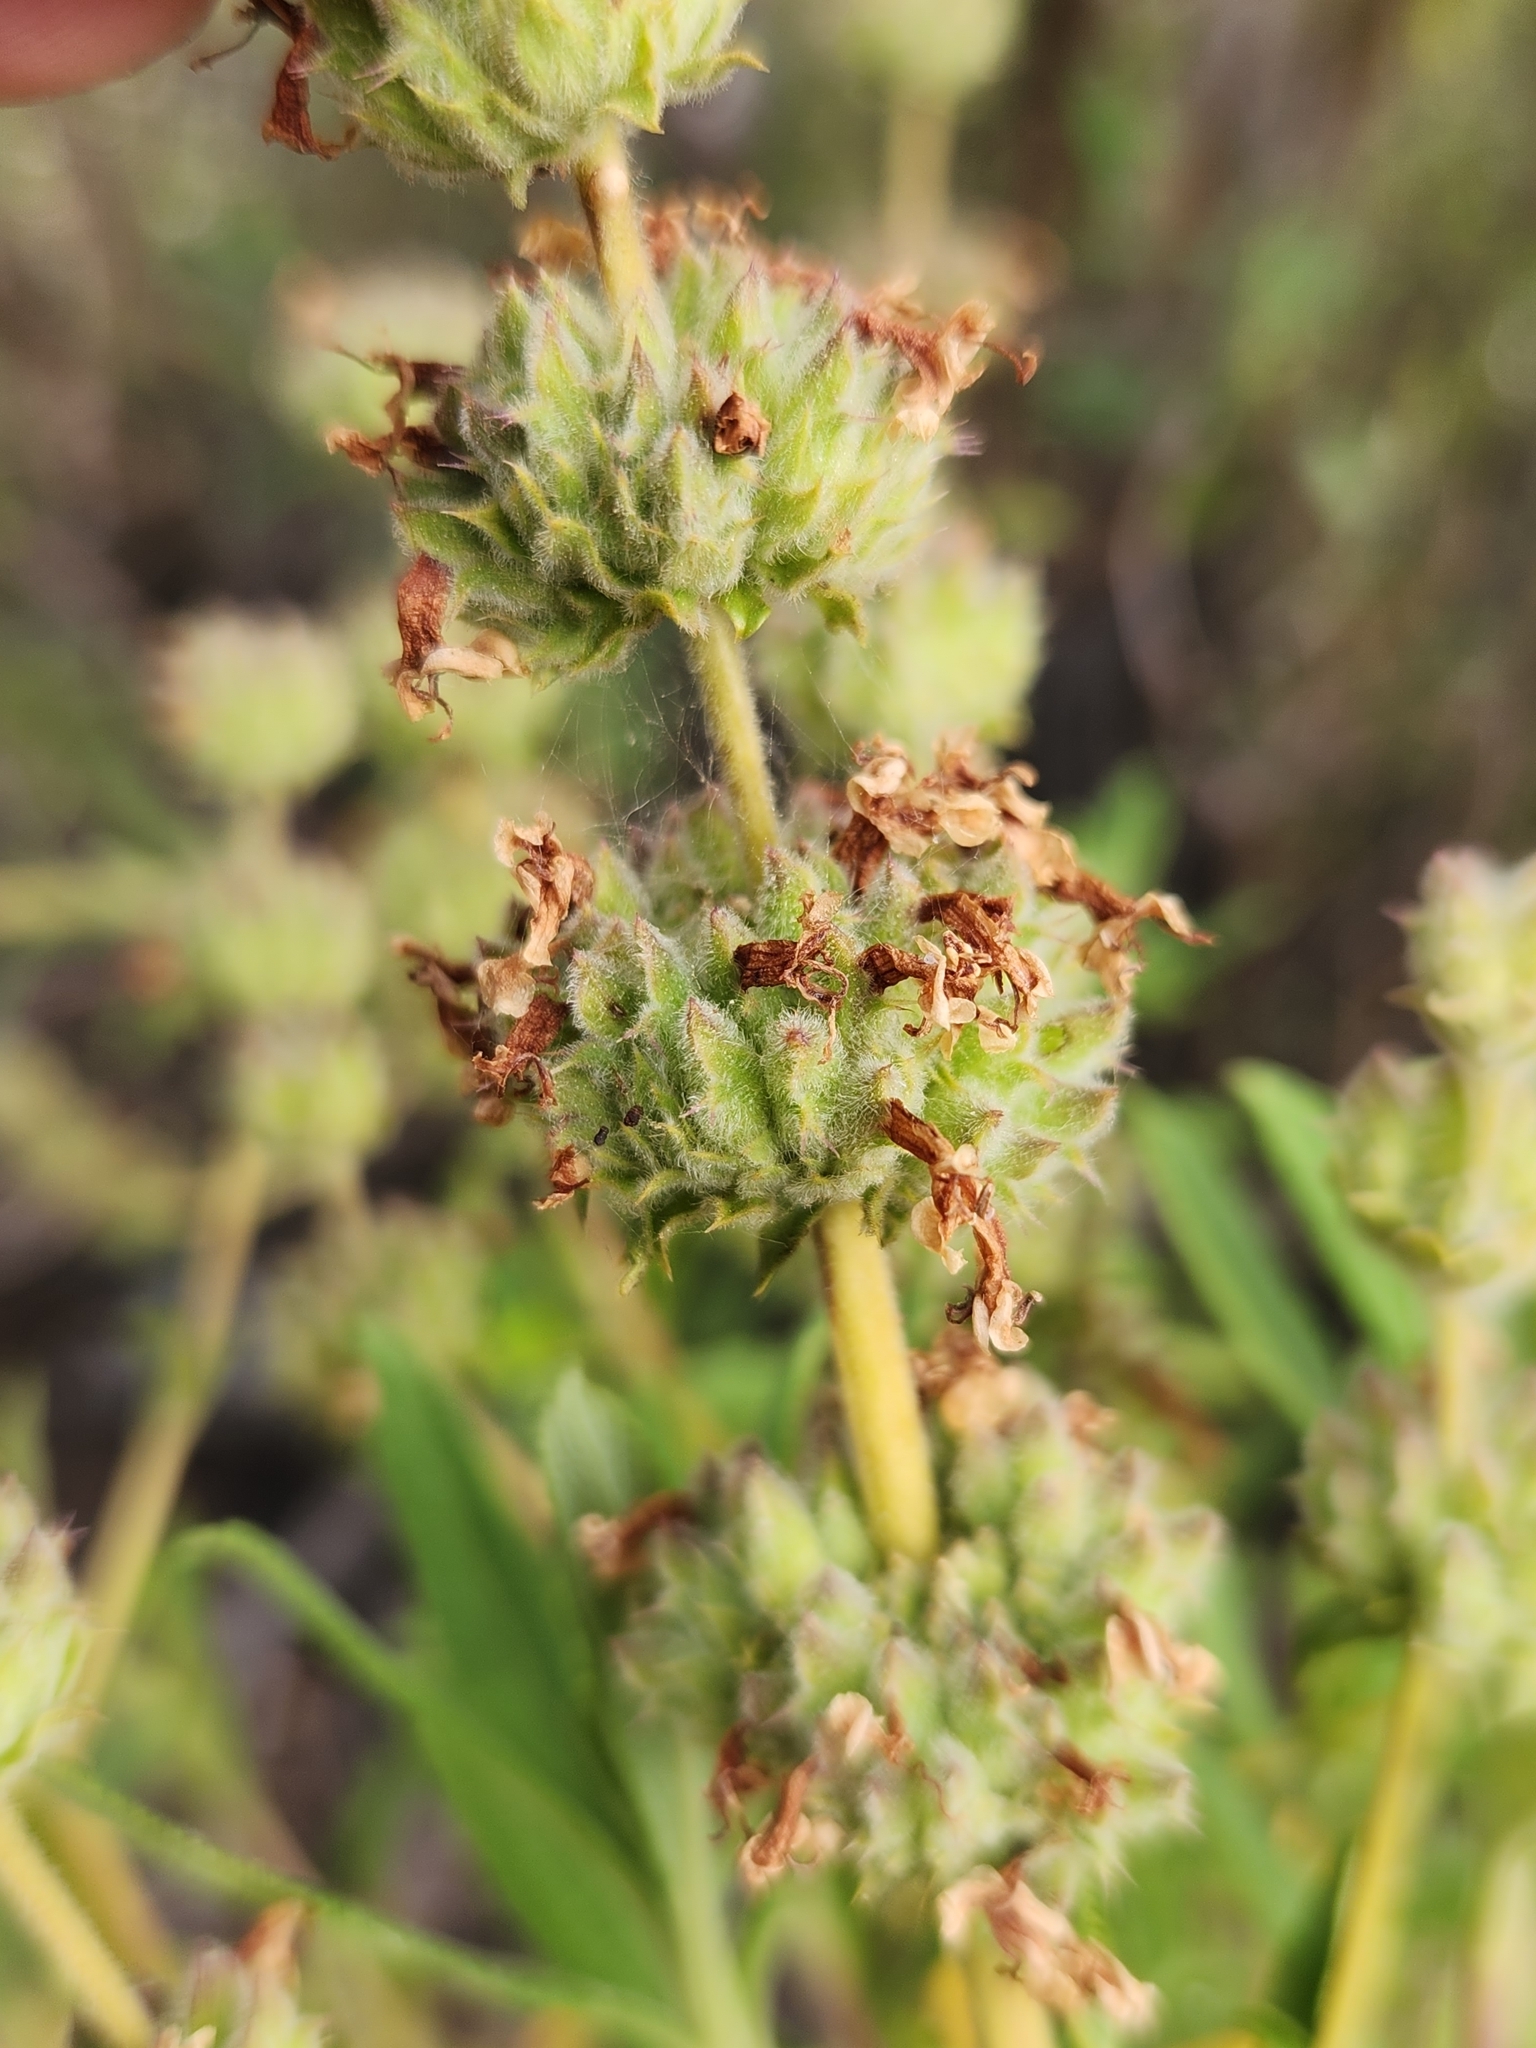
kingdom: Plantae
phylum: Tracheophyta
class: Magnoliopsida
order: Lamiales
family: Lamiaceae
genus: Salvia
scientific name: Salvia mellifera
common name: Black sage
